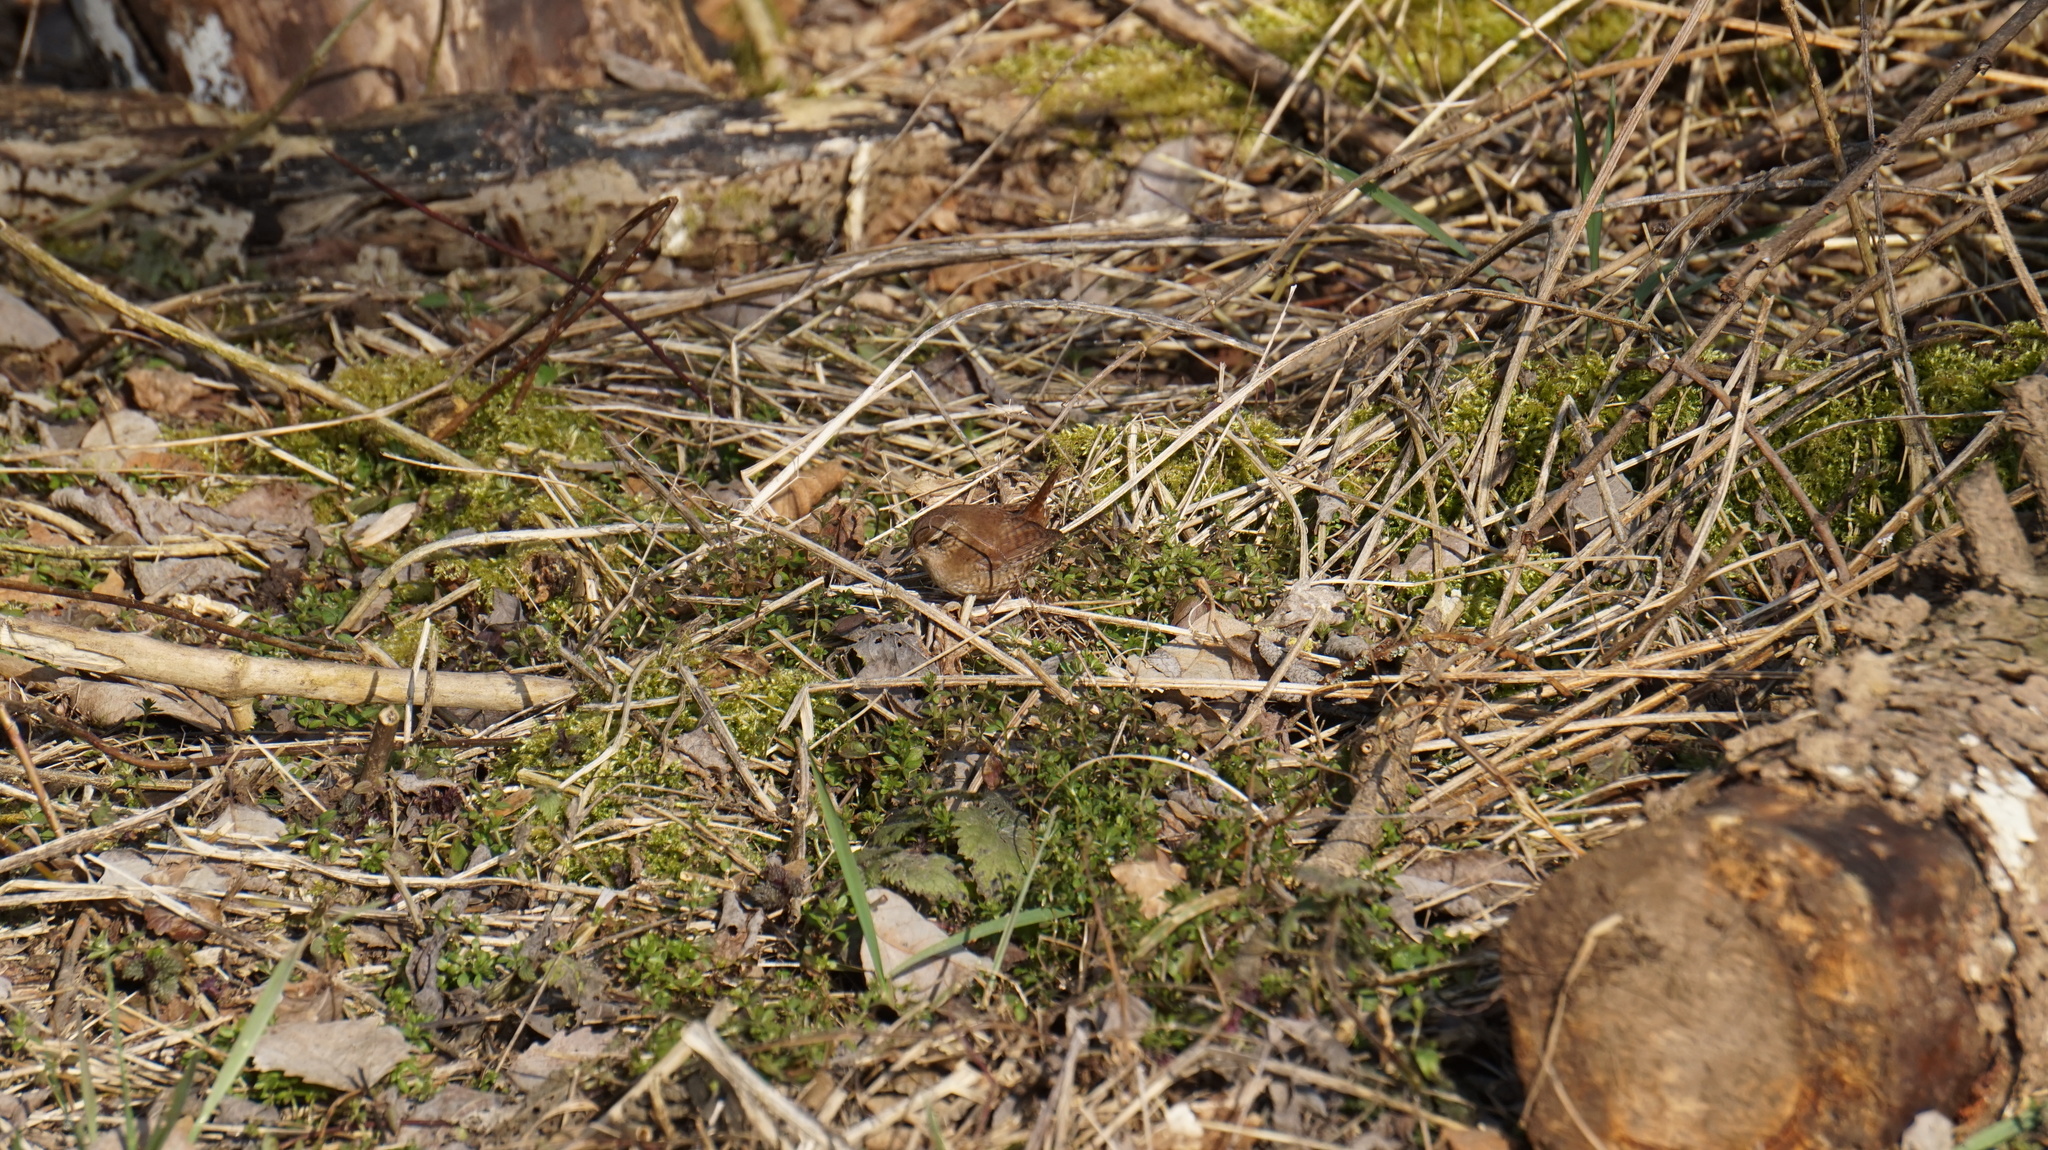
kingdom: Animalia
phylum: Chordata
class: Aves
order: Passeriformes
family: Troglodytidae
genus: Troglodytes
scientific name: Troglodytes troglodytes
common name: Eurasian wren
